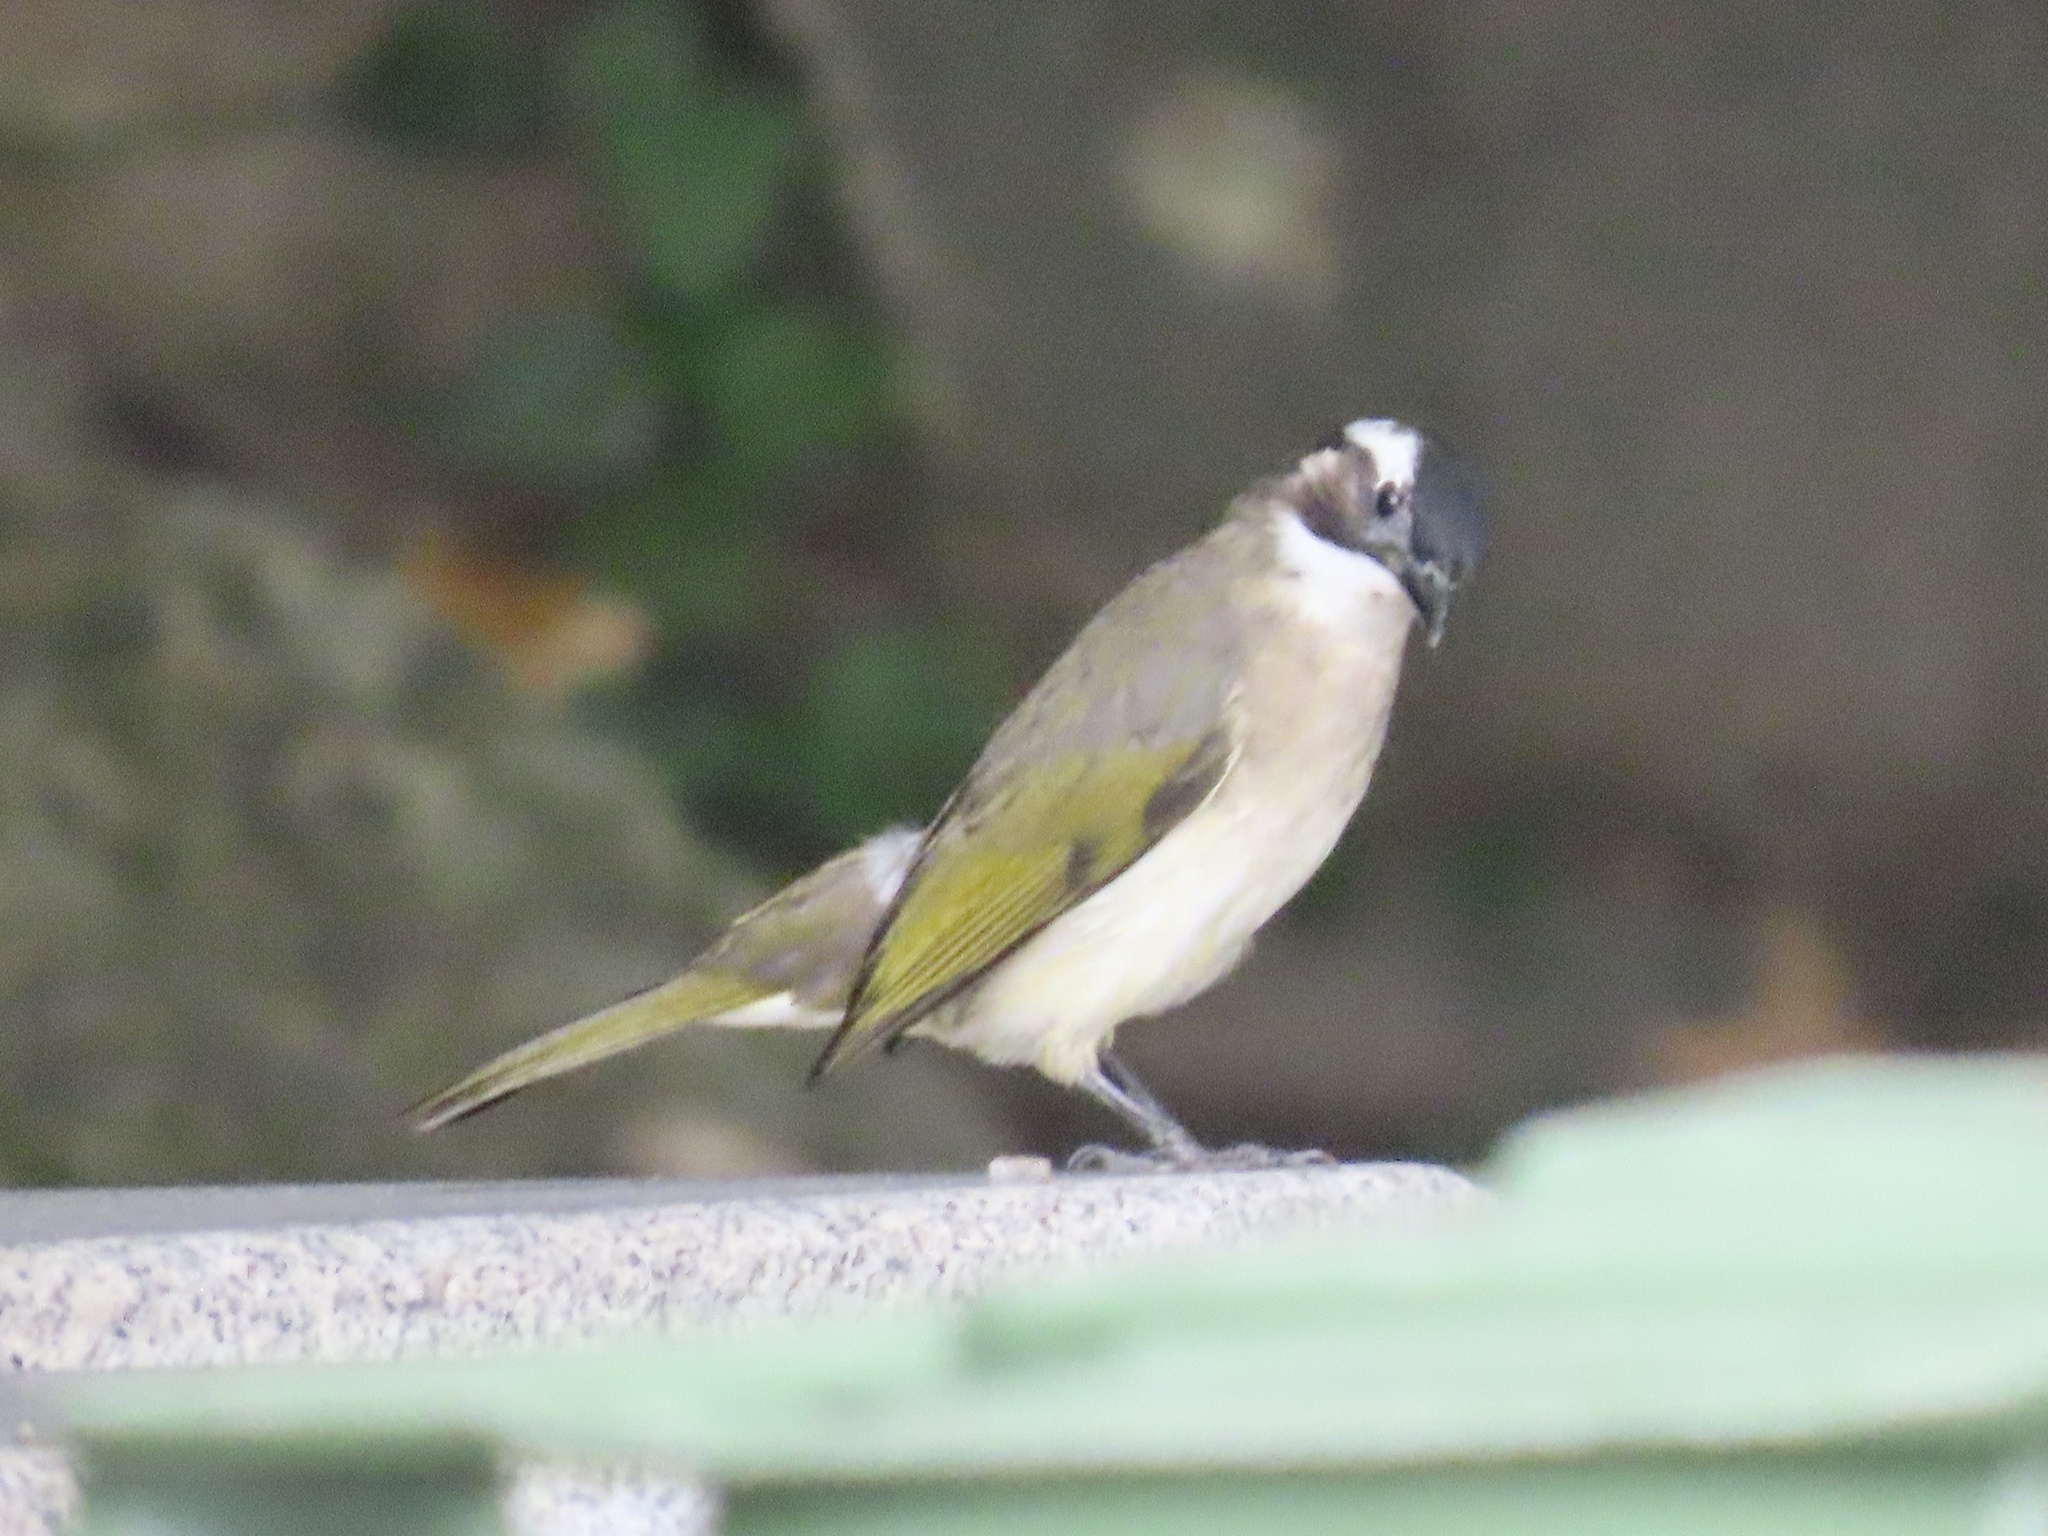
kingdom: Animalia
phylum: Chordata
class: Aves
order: Passeriformes
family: Pycnonotidae
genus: Pycnonotus
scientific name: Pycnonotus sinensis
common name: Light-vented bulbul
